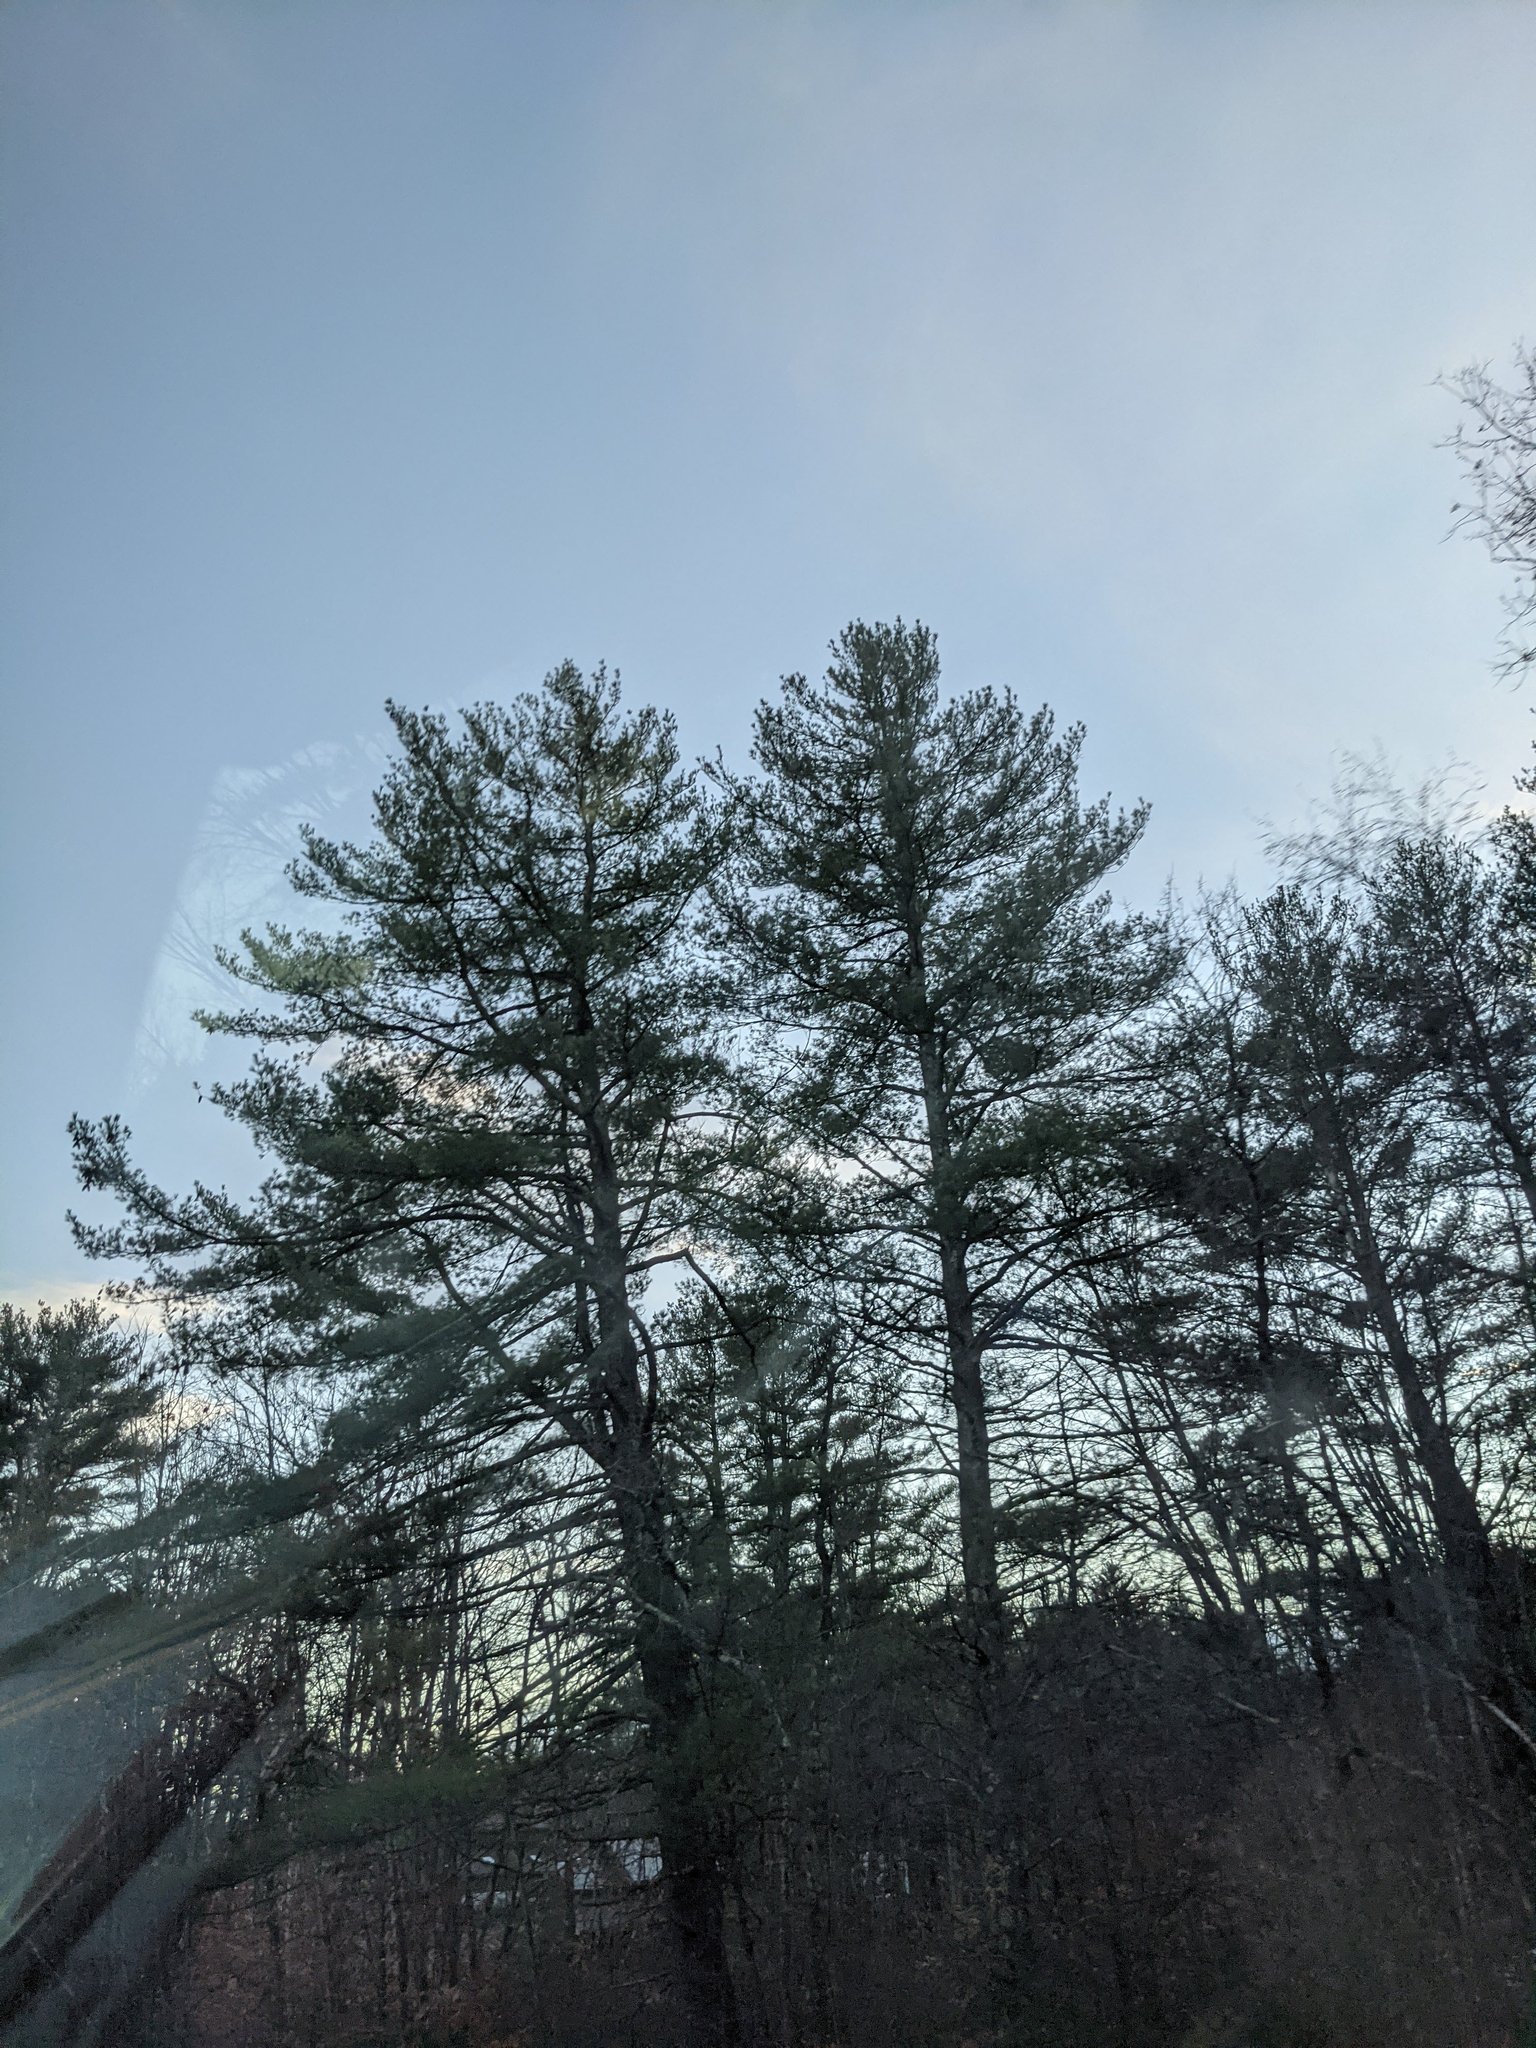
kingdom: Plantae
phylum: Tracheophyta
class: Pinopsida
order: Pinales
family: Pinaceae
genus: Pinus
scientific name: Pinus strobus
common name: Weymouth pine
